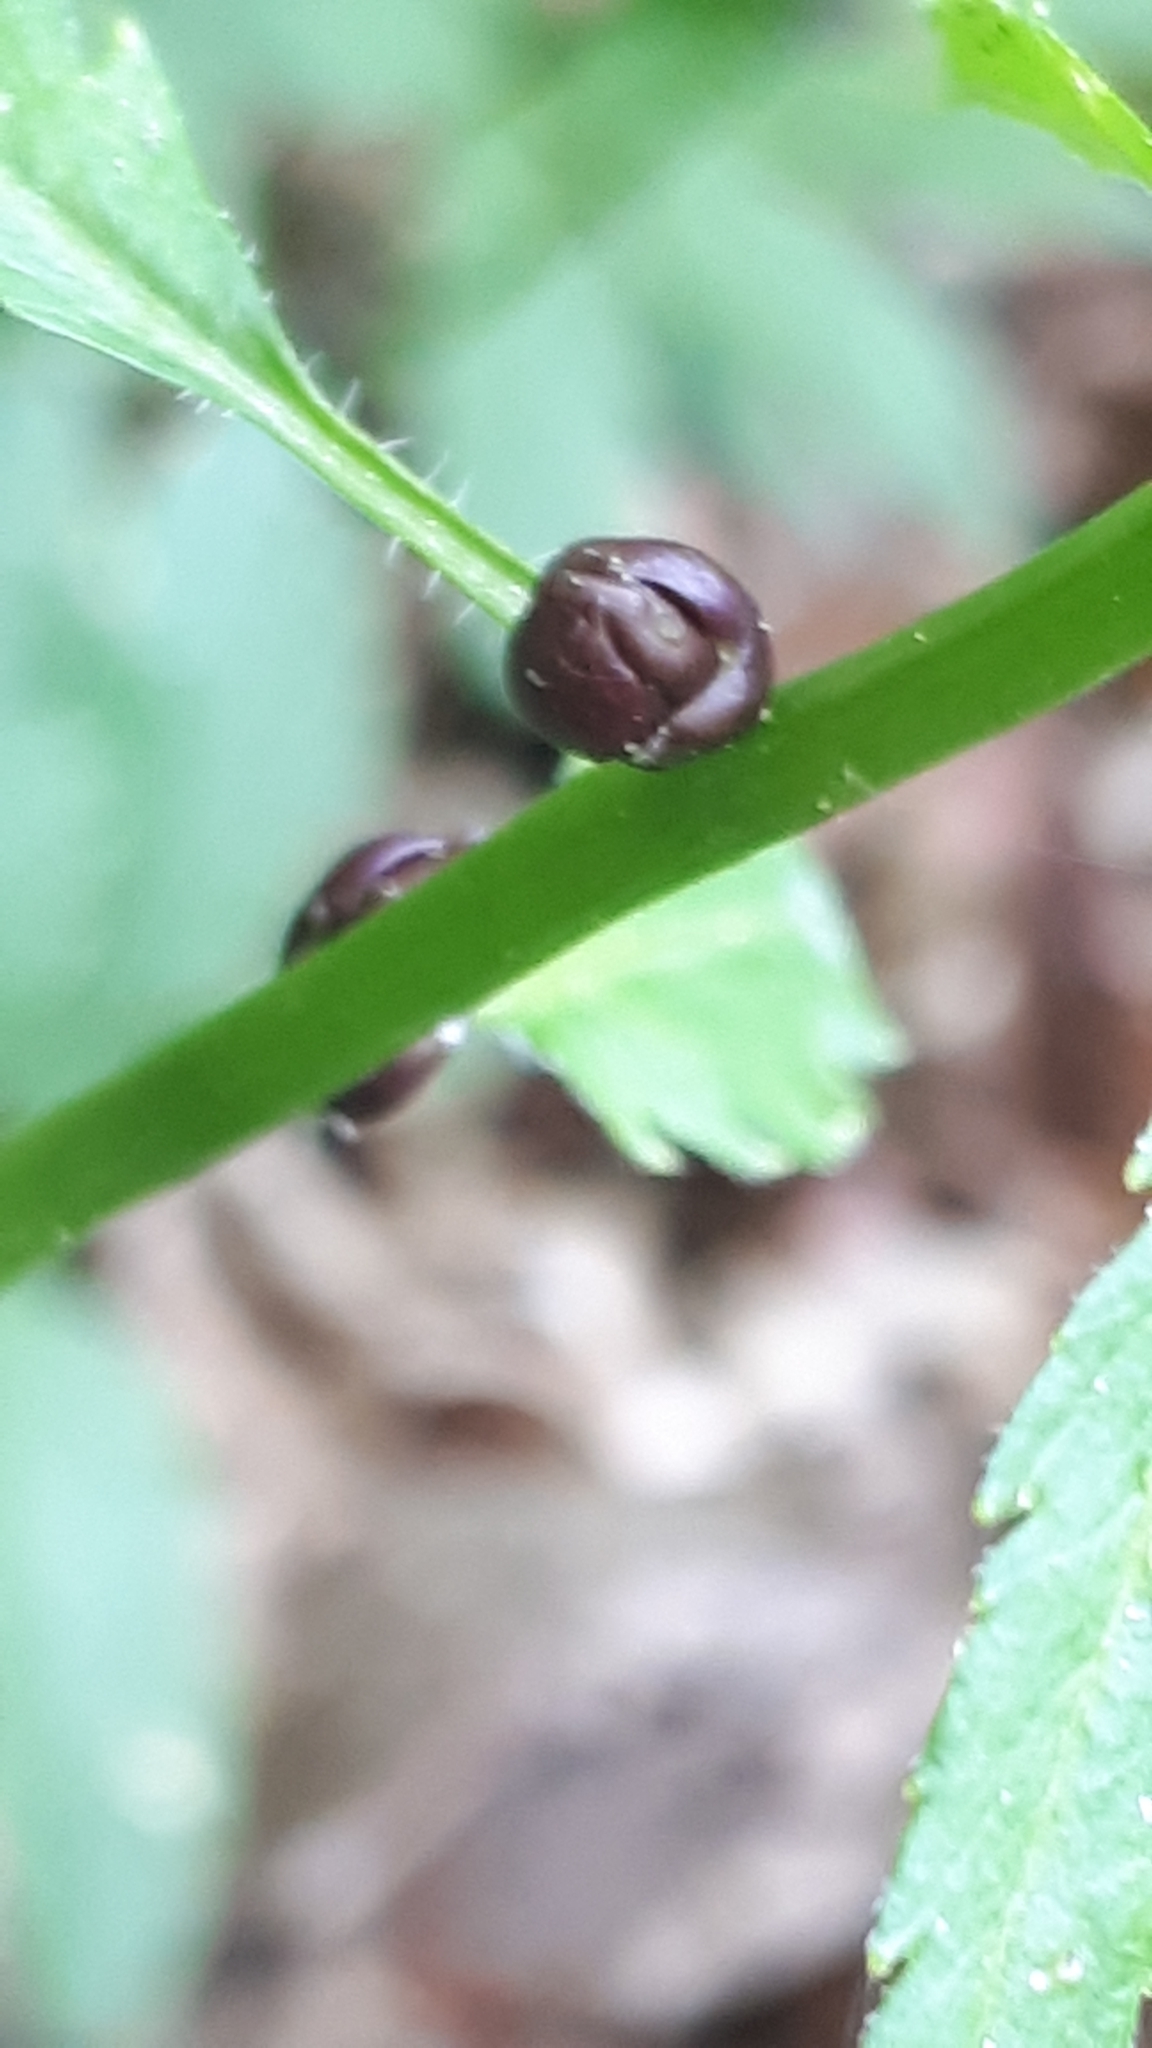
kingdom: Plantae
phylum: Tracheophyta
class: Magnoliopsida
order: Brassicales
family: Brassicaceae
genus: Cardamine
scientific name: Cardamine bulbifera
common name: Coralroot bittercress
